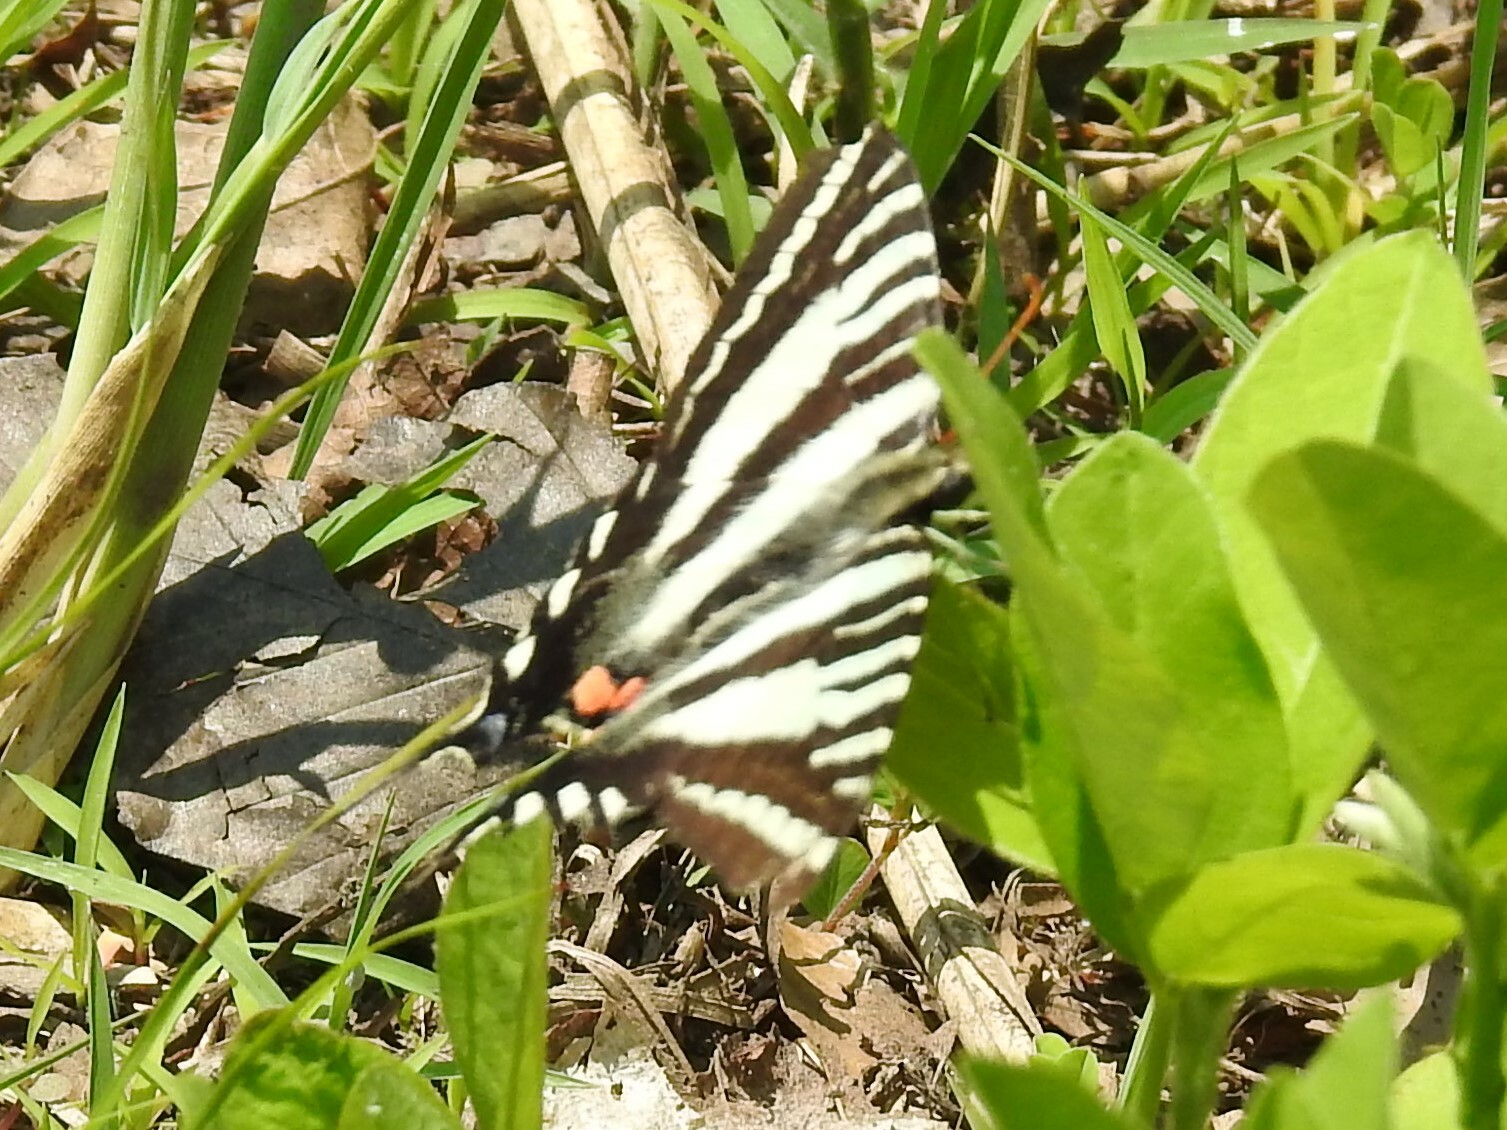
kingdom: Animalia
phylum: Arthropoda
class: Insecta
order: Lepidoptera
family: Papilionidae
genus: Protographium
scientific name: Protographium marcellus
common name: Zebra swallowtail
